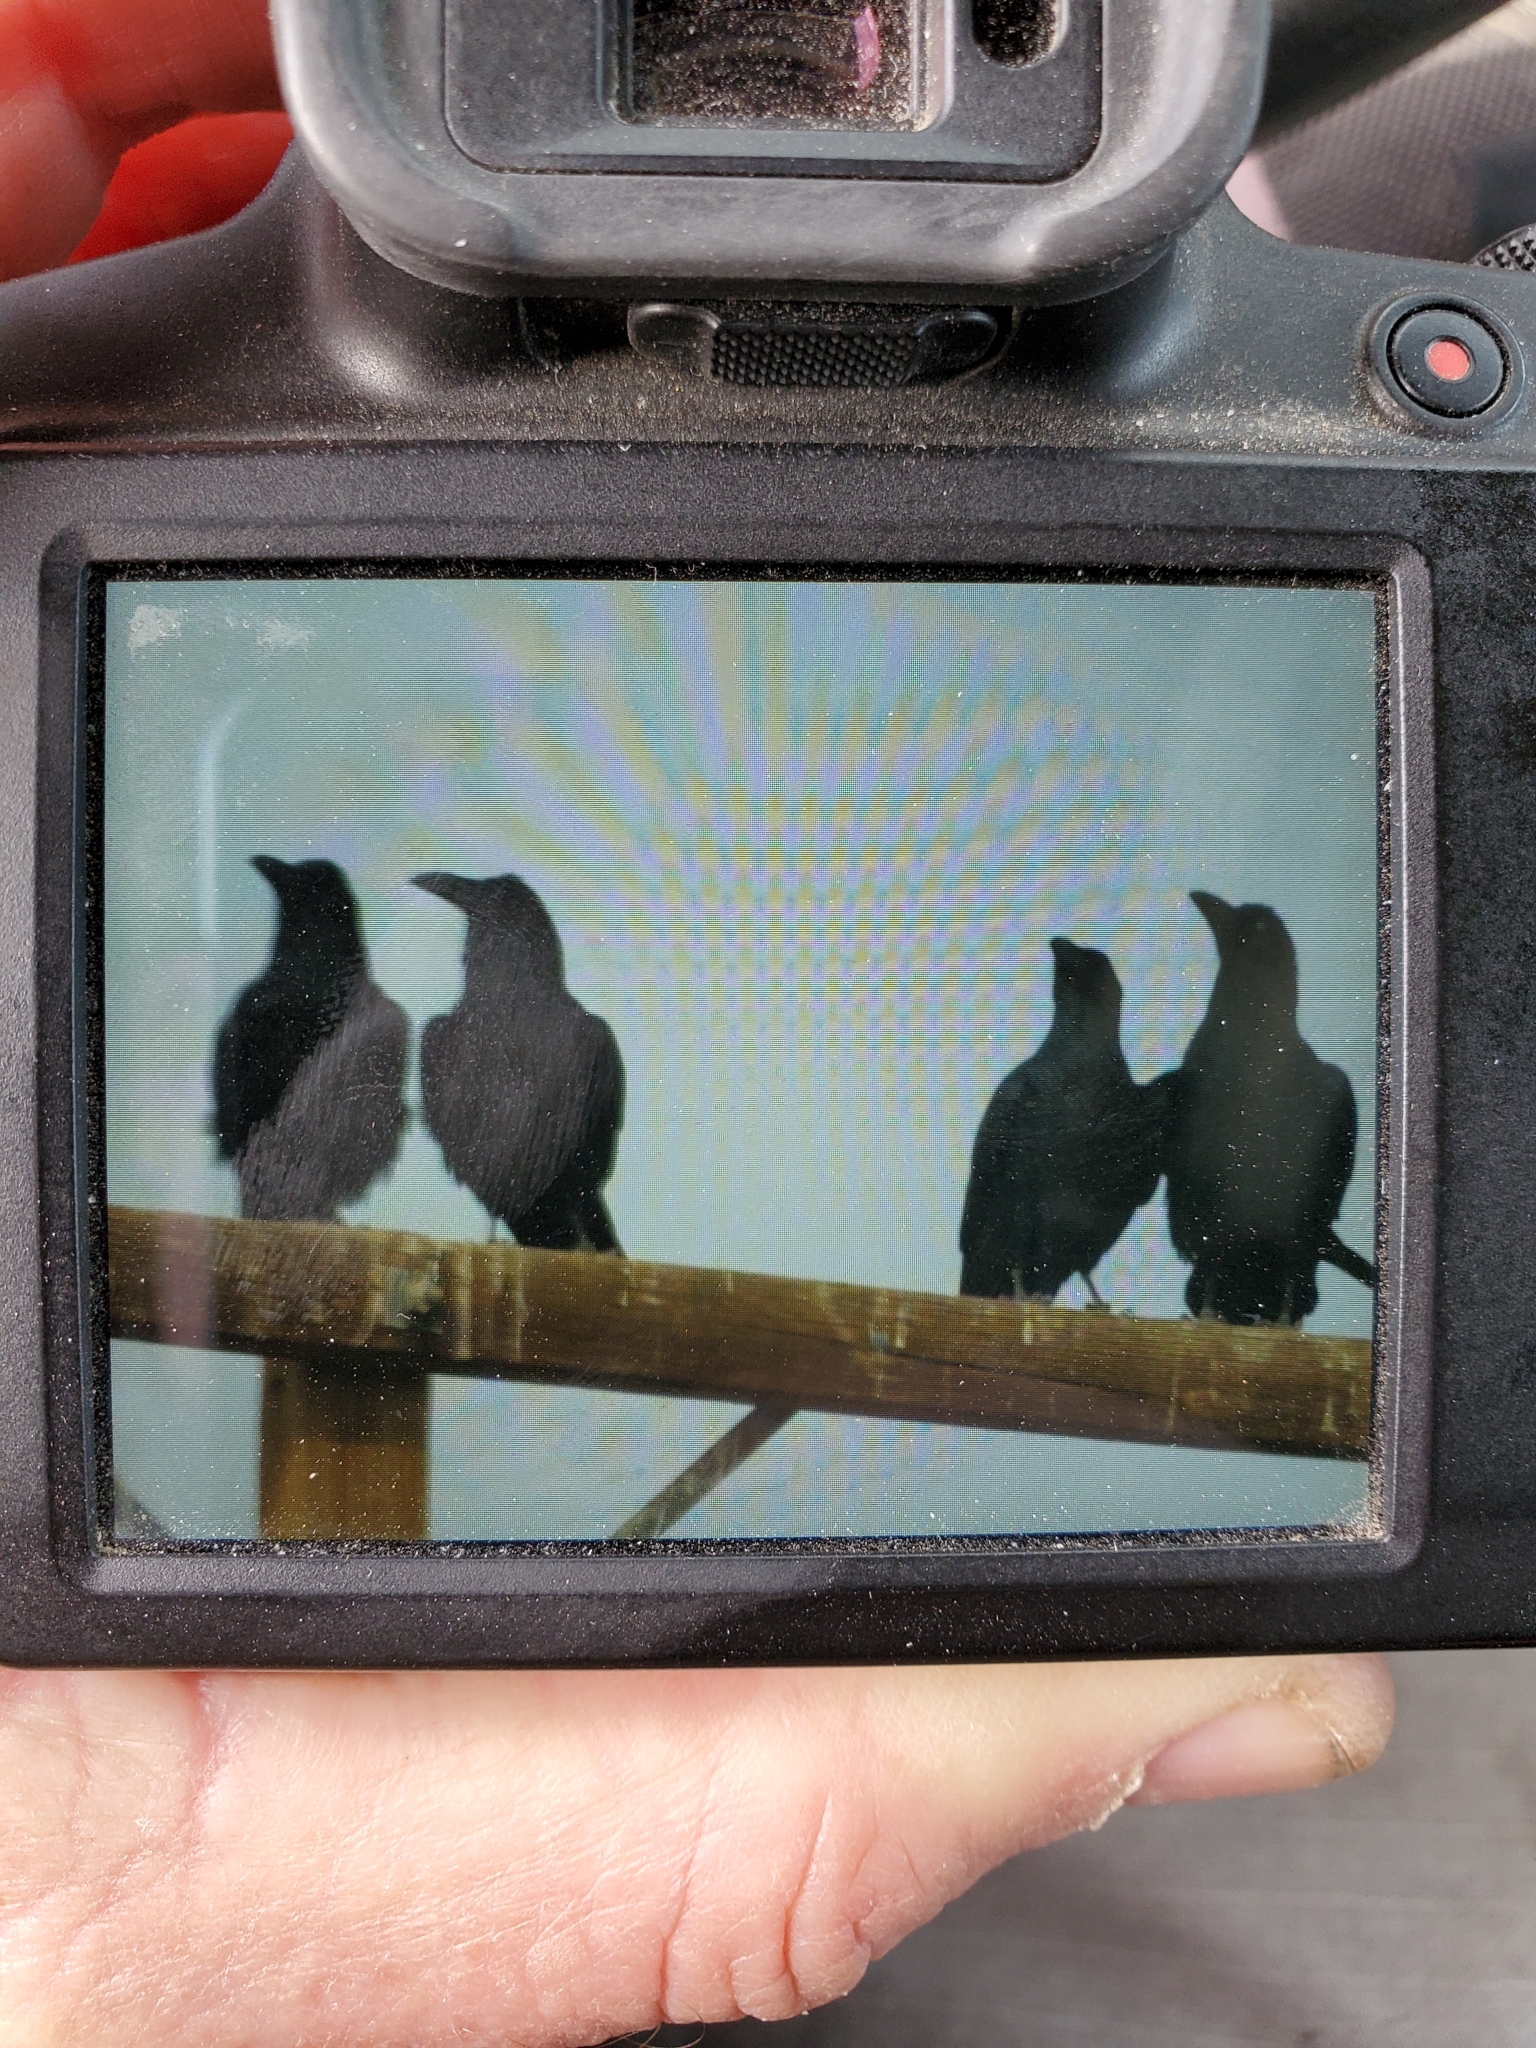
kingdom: Animalia
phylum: Chordata
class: Aves
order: Passeriformes
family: Corvidae
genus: Corvus
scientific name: Corvus corax
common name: Common raven
